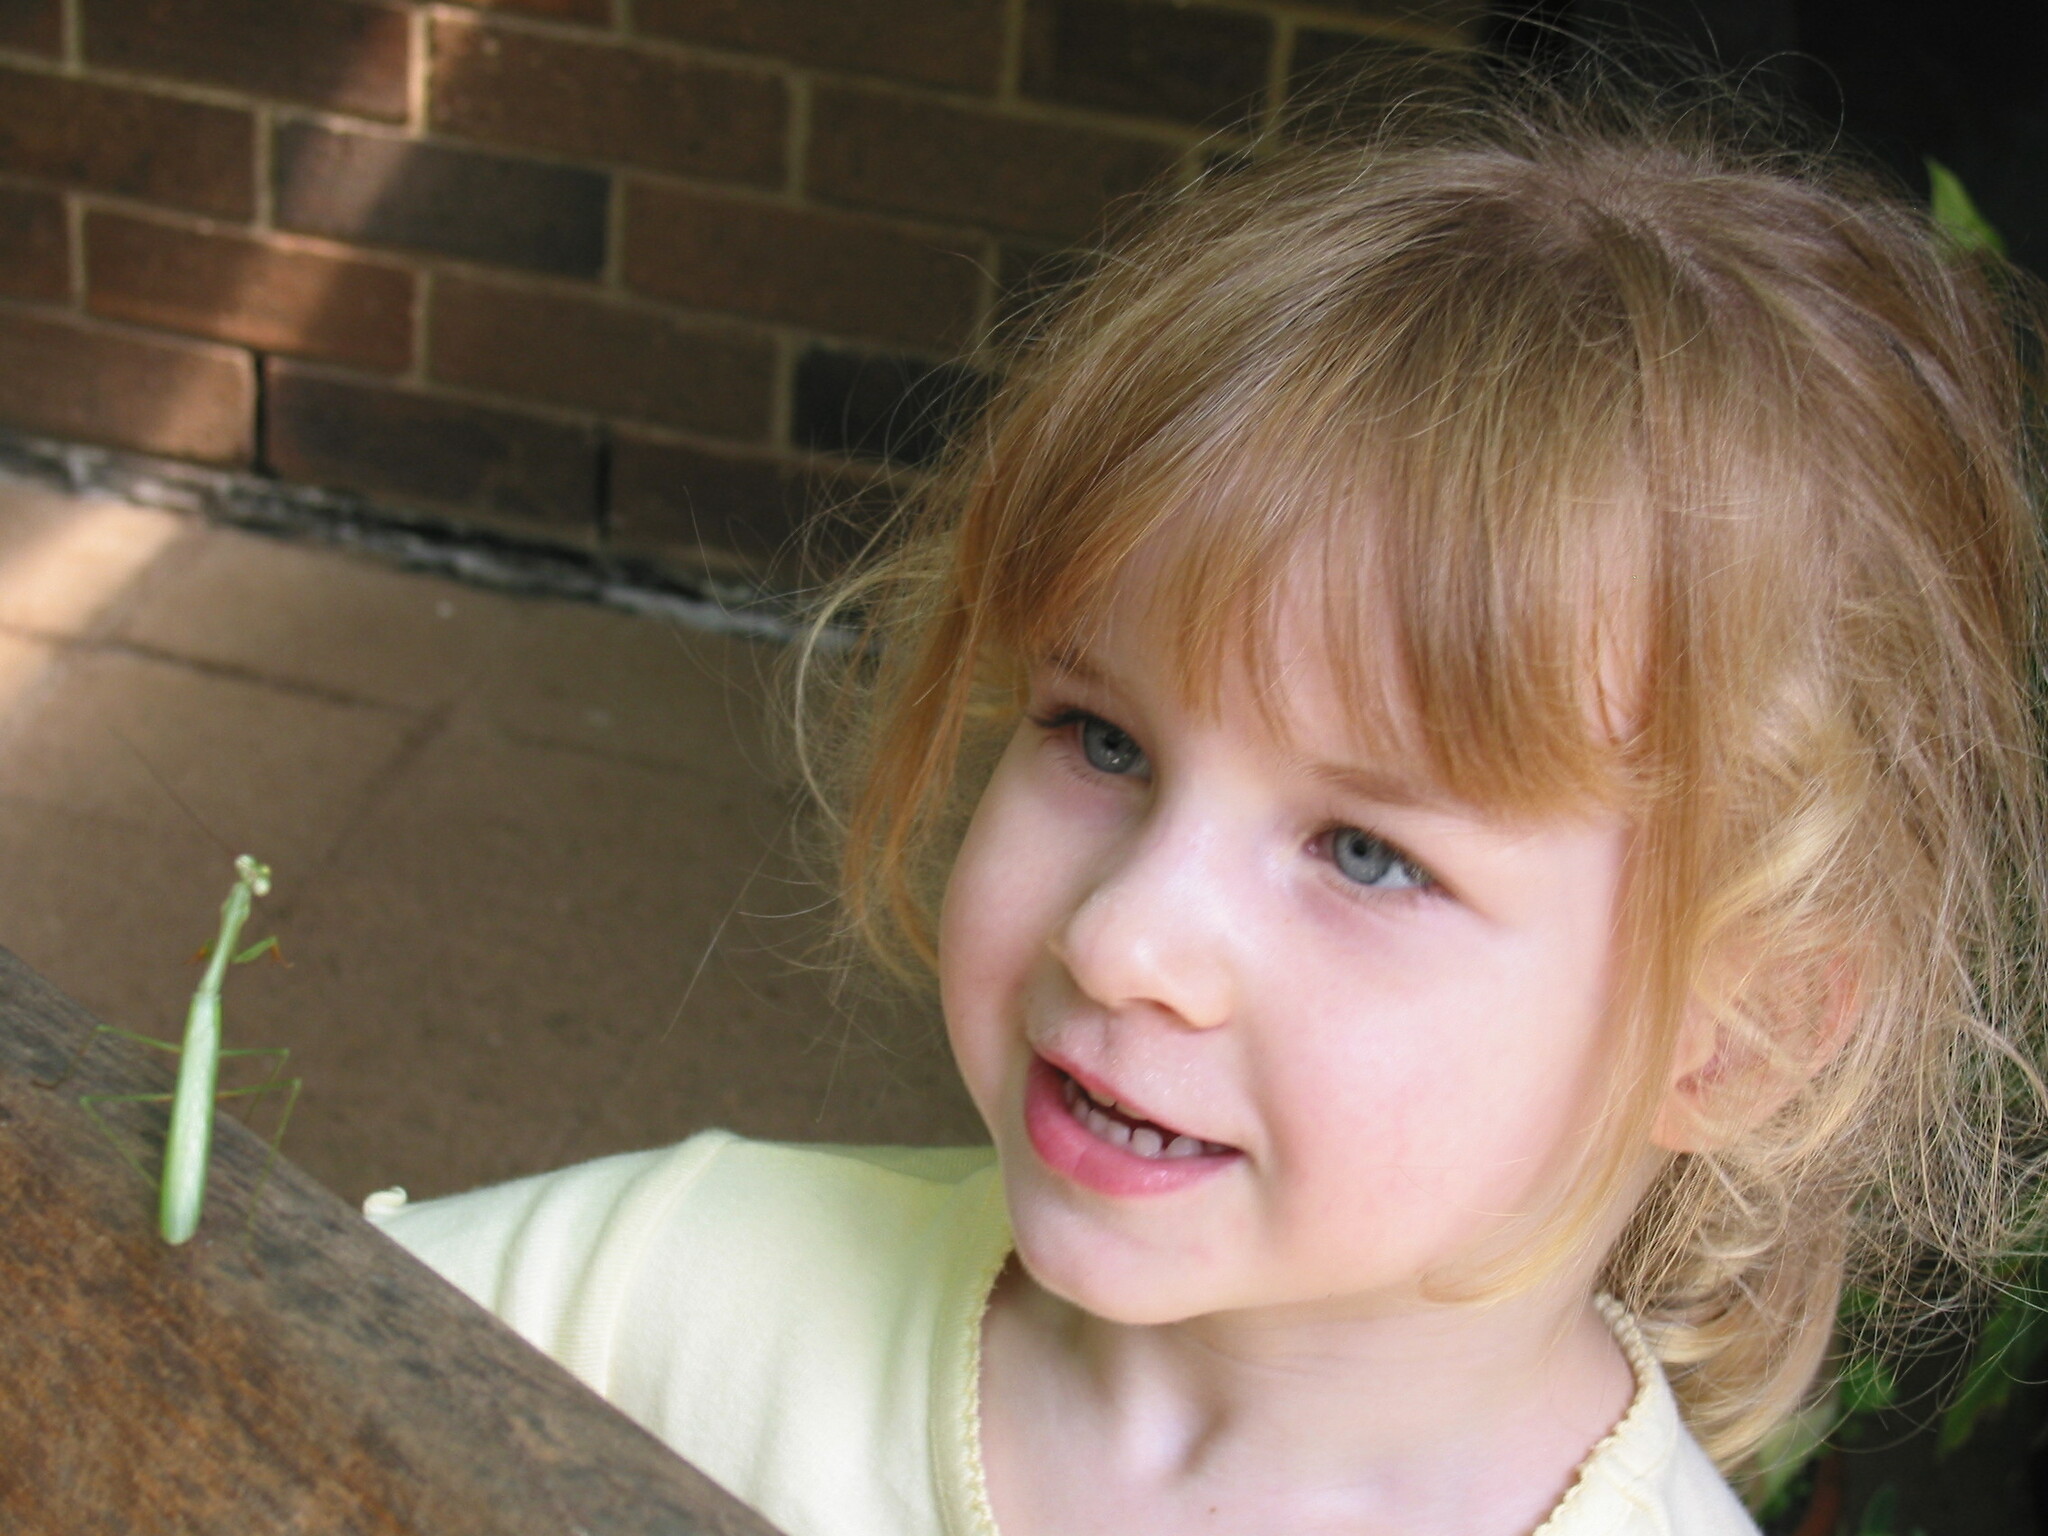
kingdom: Animalia
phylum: Arthropoda
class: Insecta
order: Mantodea
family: Mantidae
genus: Pseudomantis
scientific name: Pseudomantis albofimbriata
